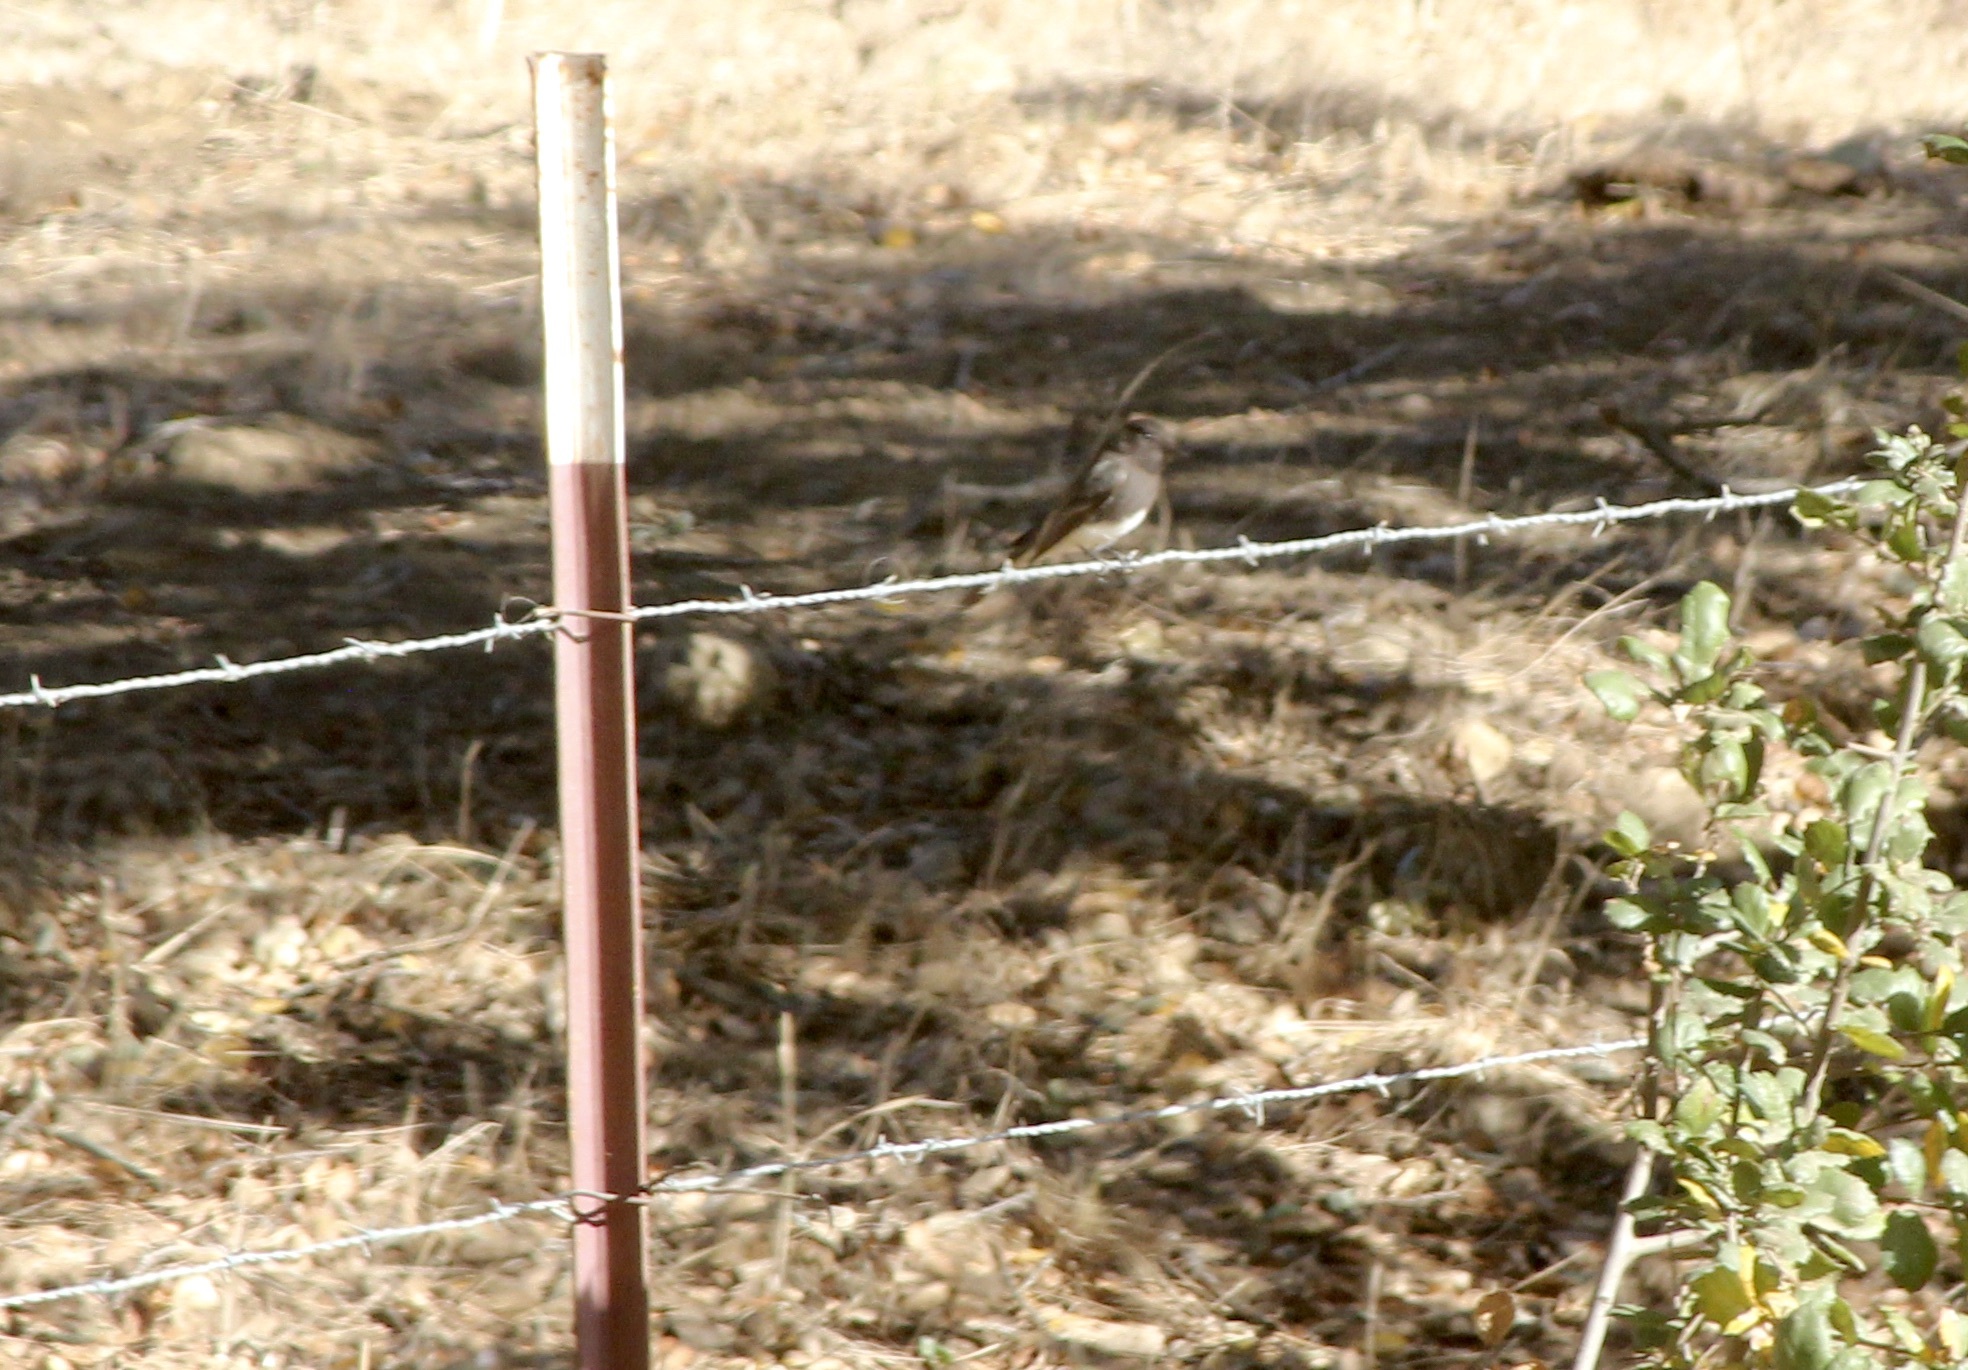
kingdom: Animalia
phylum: Chordata
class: Aves
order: Passeriformes
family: Tyrannidae
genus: Sayornis
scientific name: Sayornis nigricans
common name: Black phoebe
